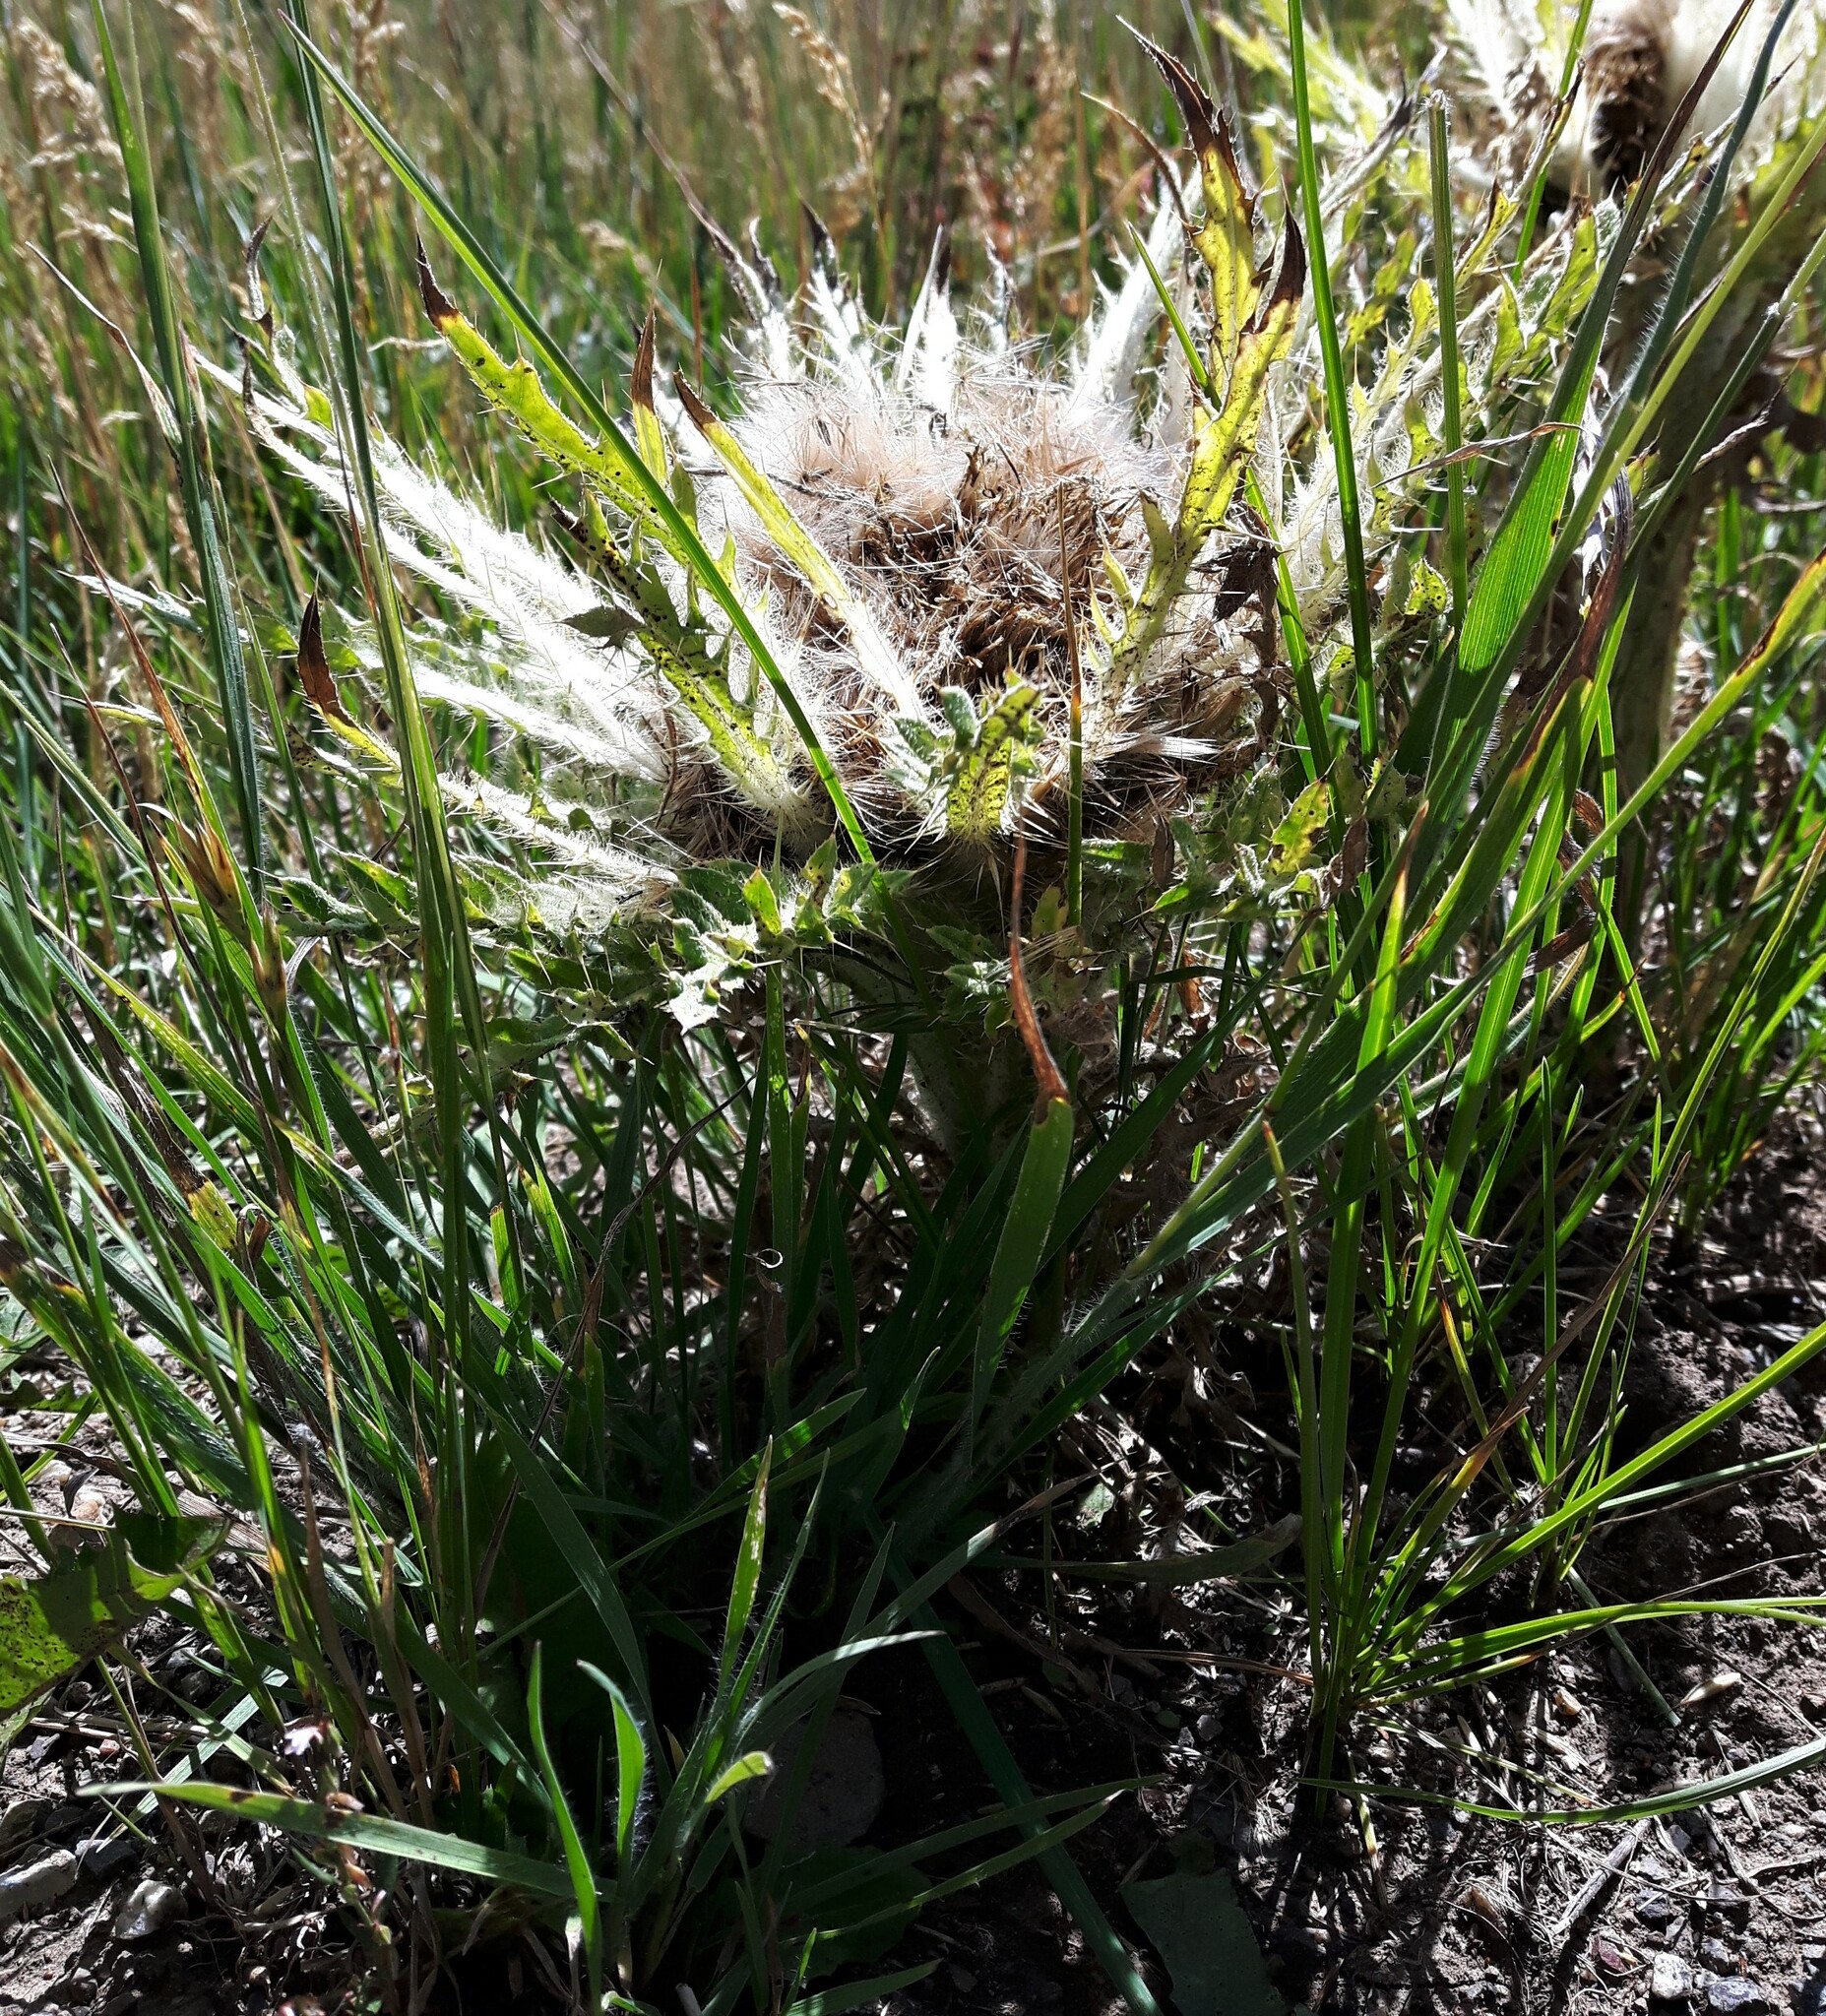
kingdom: Plantae
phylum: Tracheophyta
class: Magnoliopsida
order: Asterales
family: Asteraceae
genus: Cirsium
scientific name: Cirsium scariosum
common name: Meadow thistle
